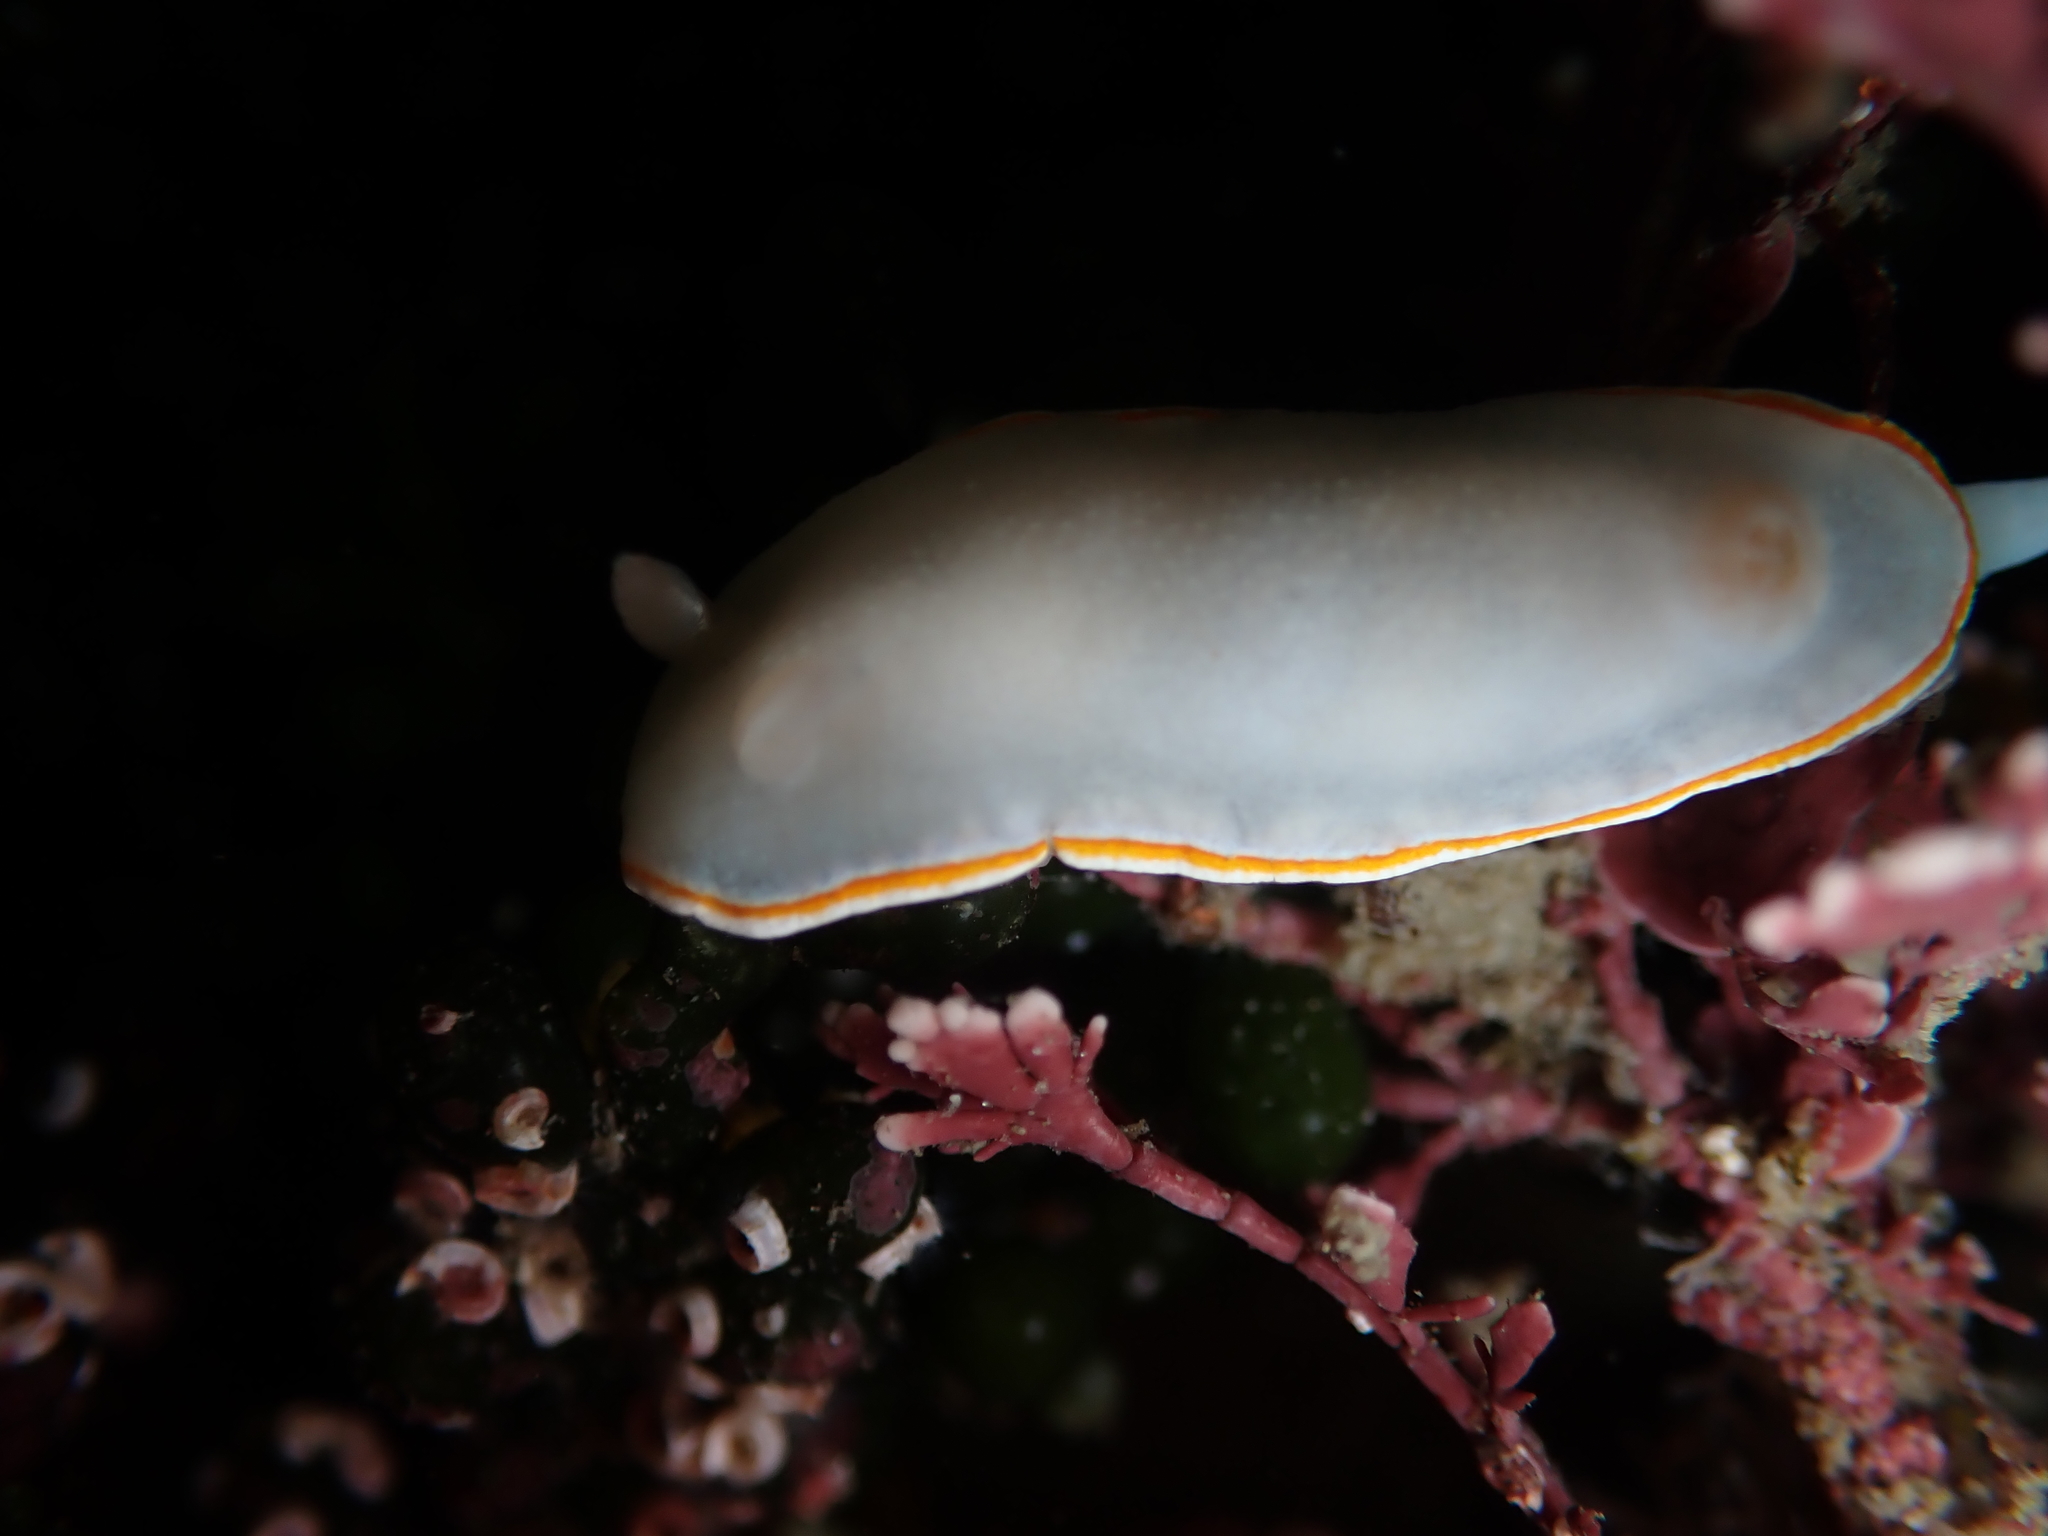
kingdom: Animalia
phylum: Mollusca
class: Gastropoda
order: Nudibranchia
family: Chromodorididae
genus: Goniobranchus
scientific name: Goniobranchus aureomarginatus
